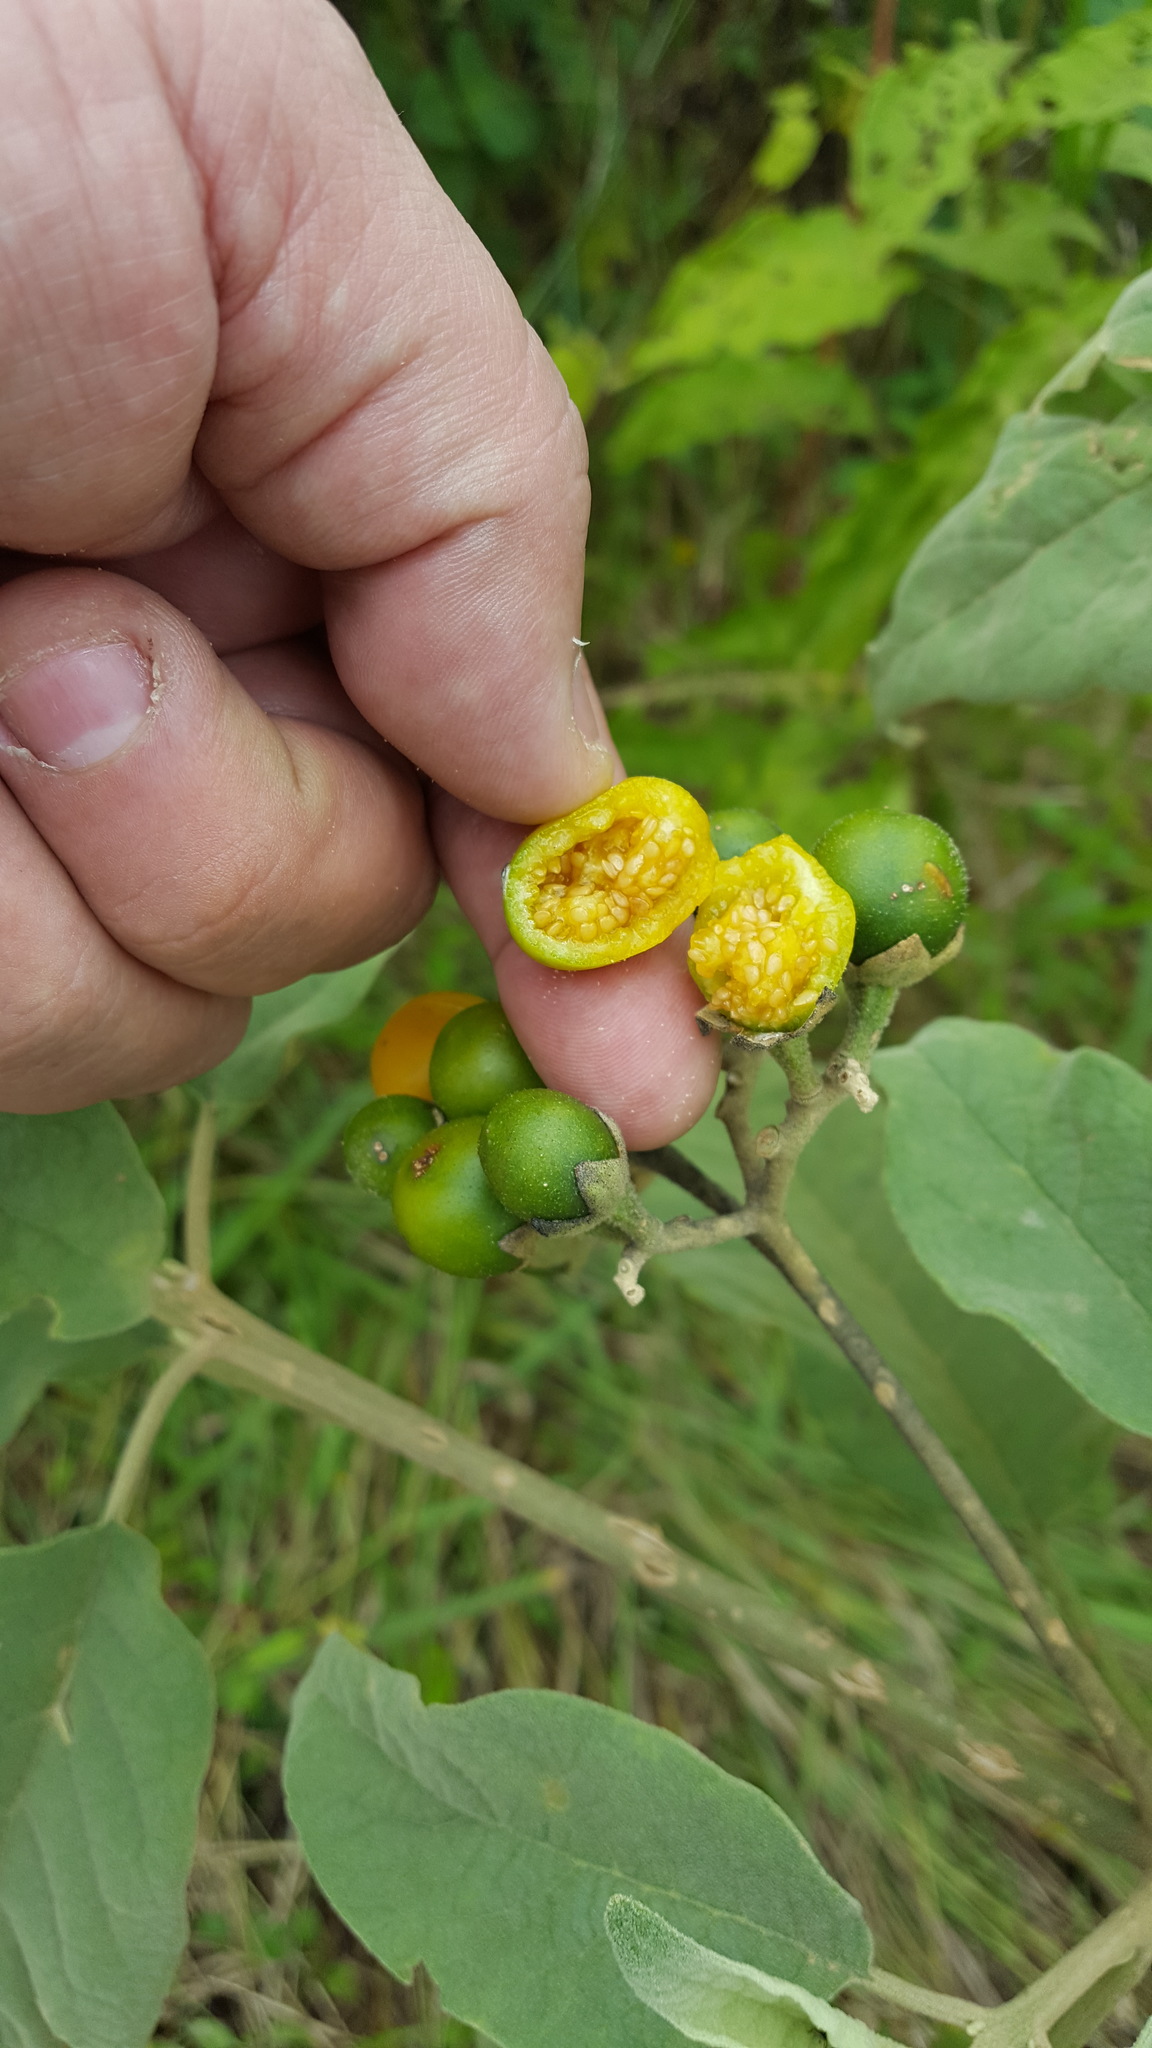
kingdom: Plantae
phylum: Tracheophyta
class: Magnoliopsida
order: Solanales
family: Solanaceae
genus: Solanum
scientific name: Solanum erianthum
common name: Tobacco-tree
